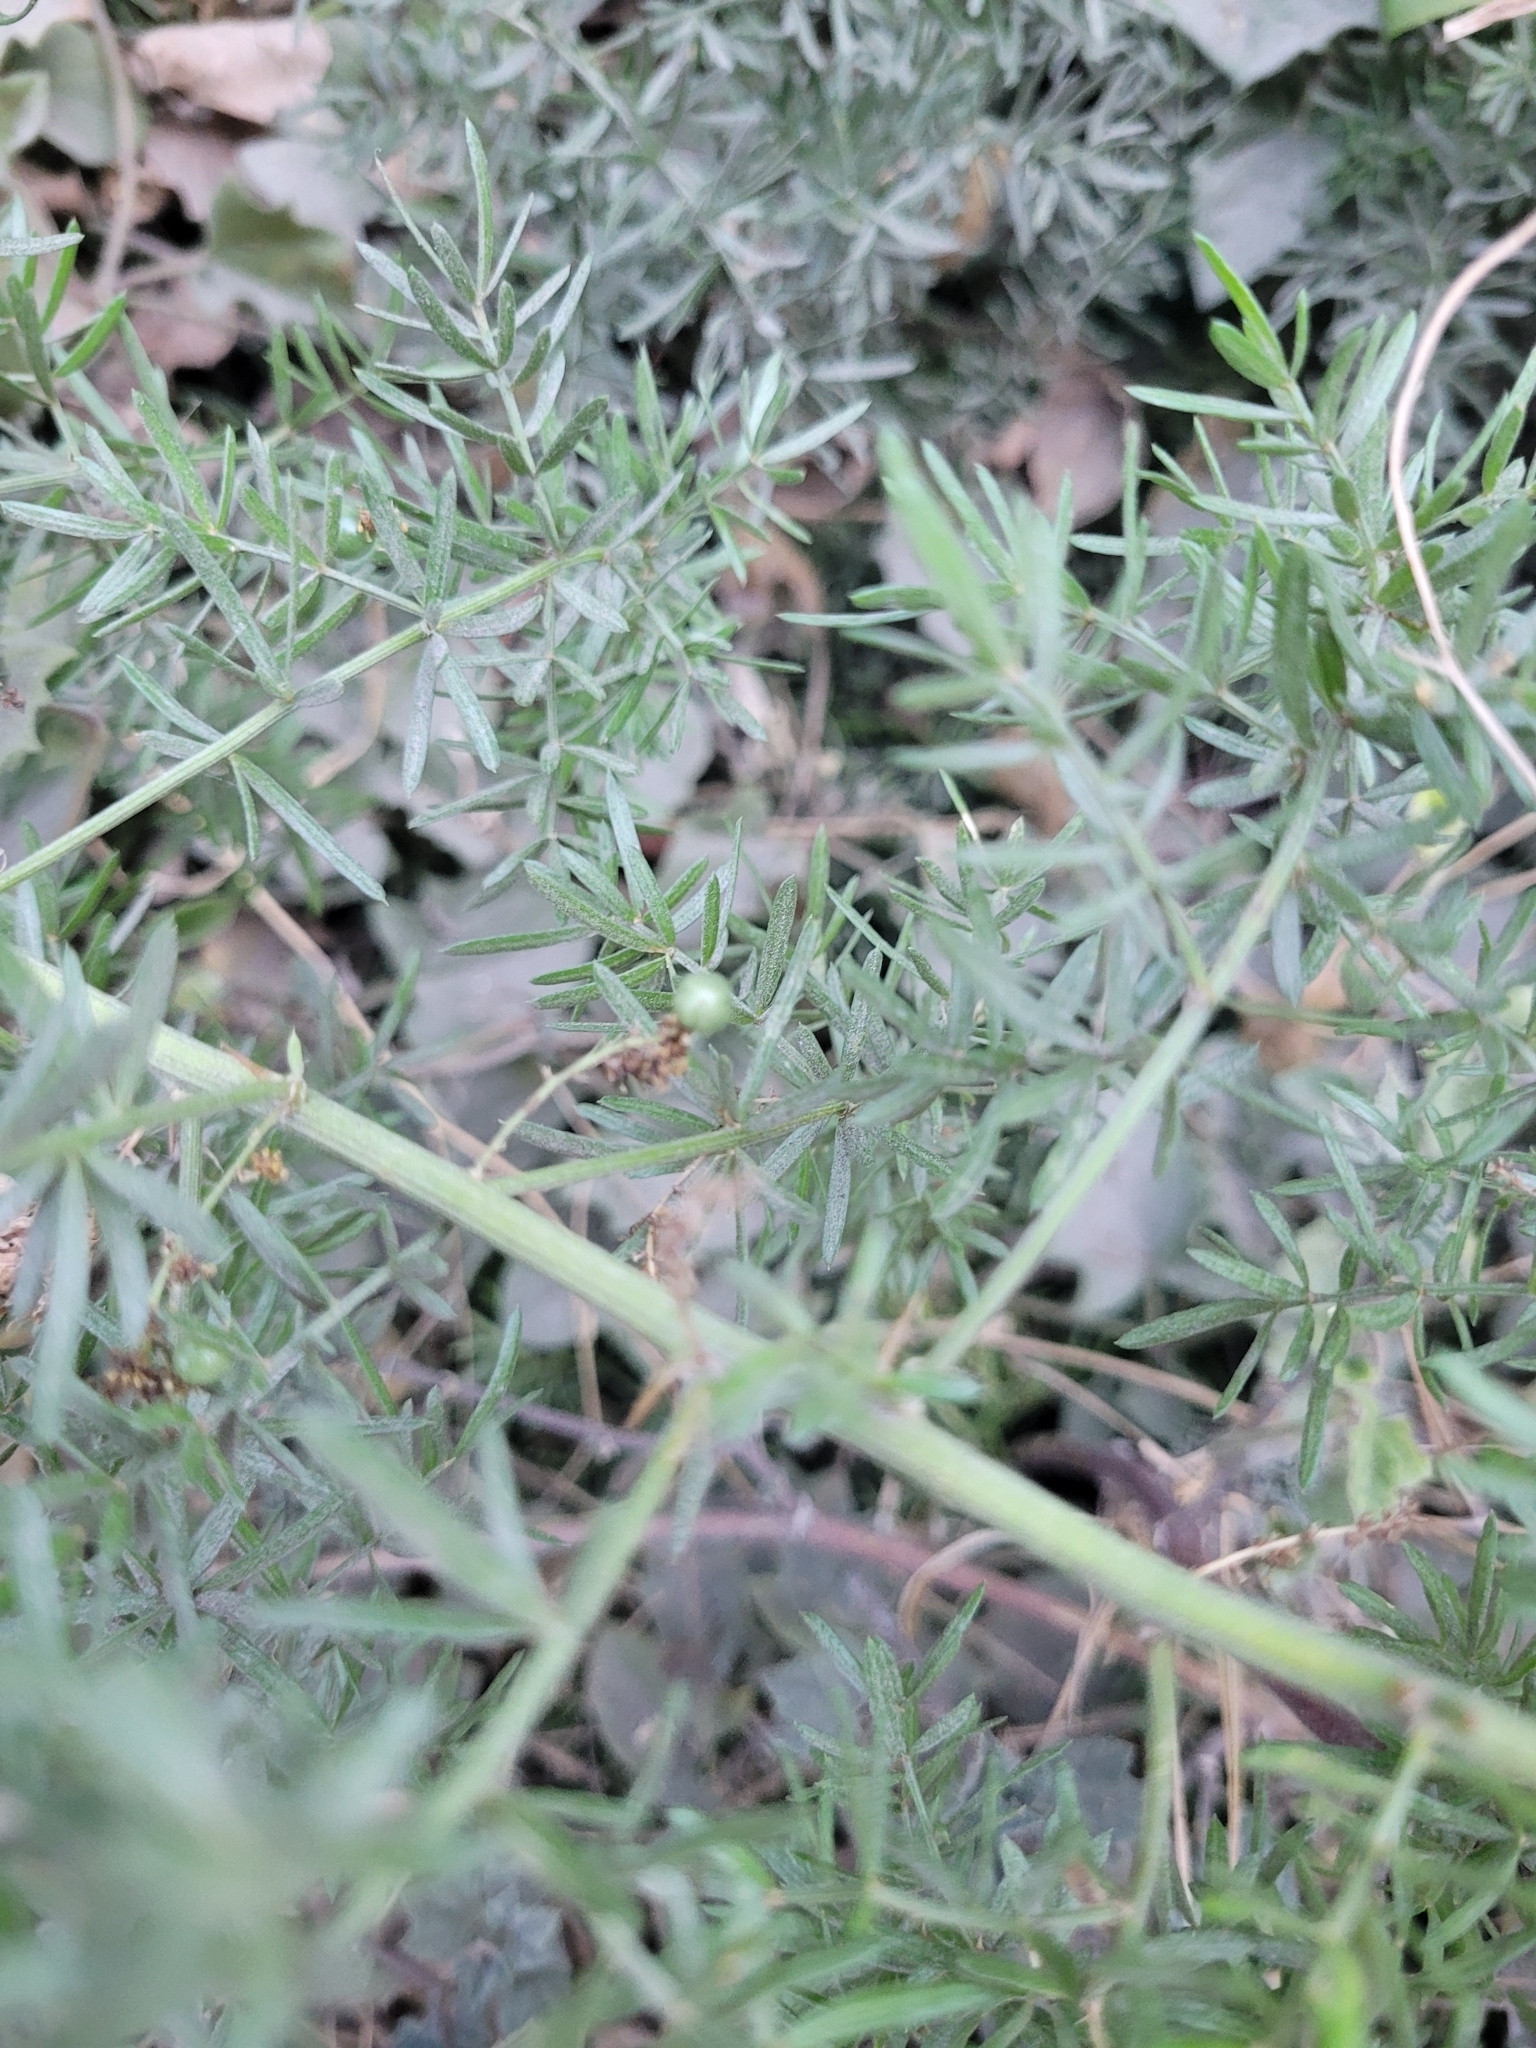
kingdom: Plantae
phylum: Tracheophyta
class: Liliopsida
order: Asparagales
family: Asparagaceae
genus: Asparagus
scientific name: Asparagus aethiopicus
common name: Sprenger's asparagus fern
